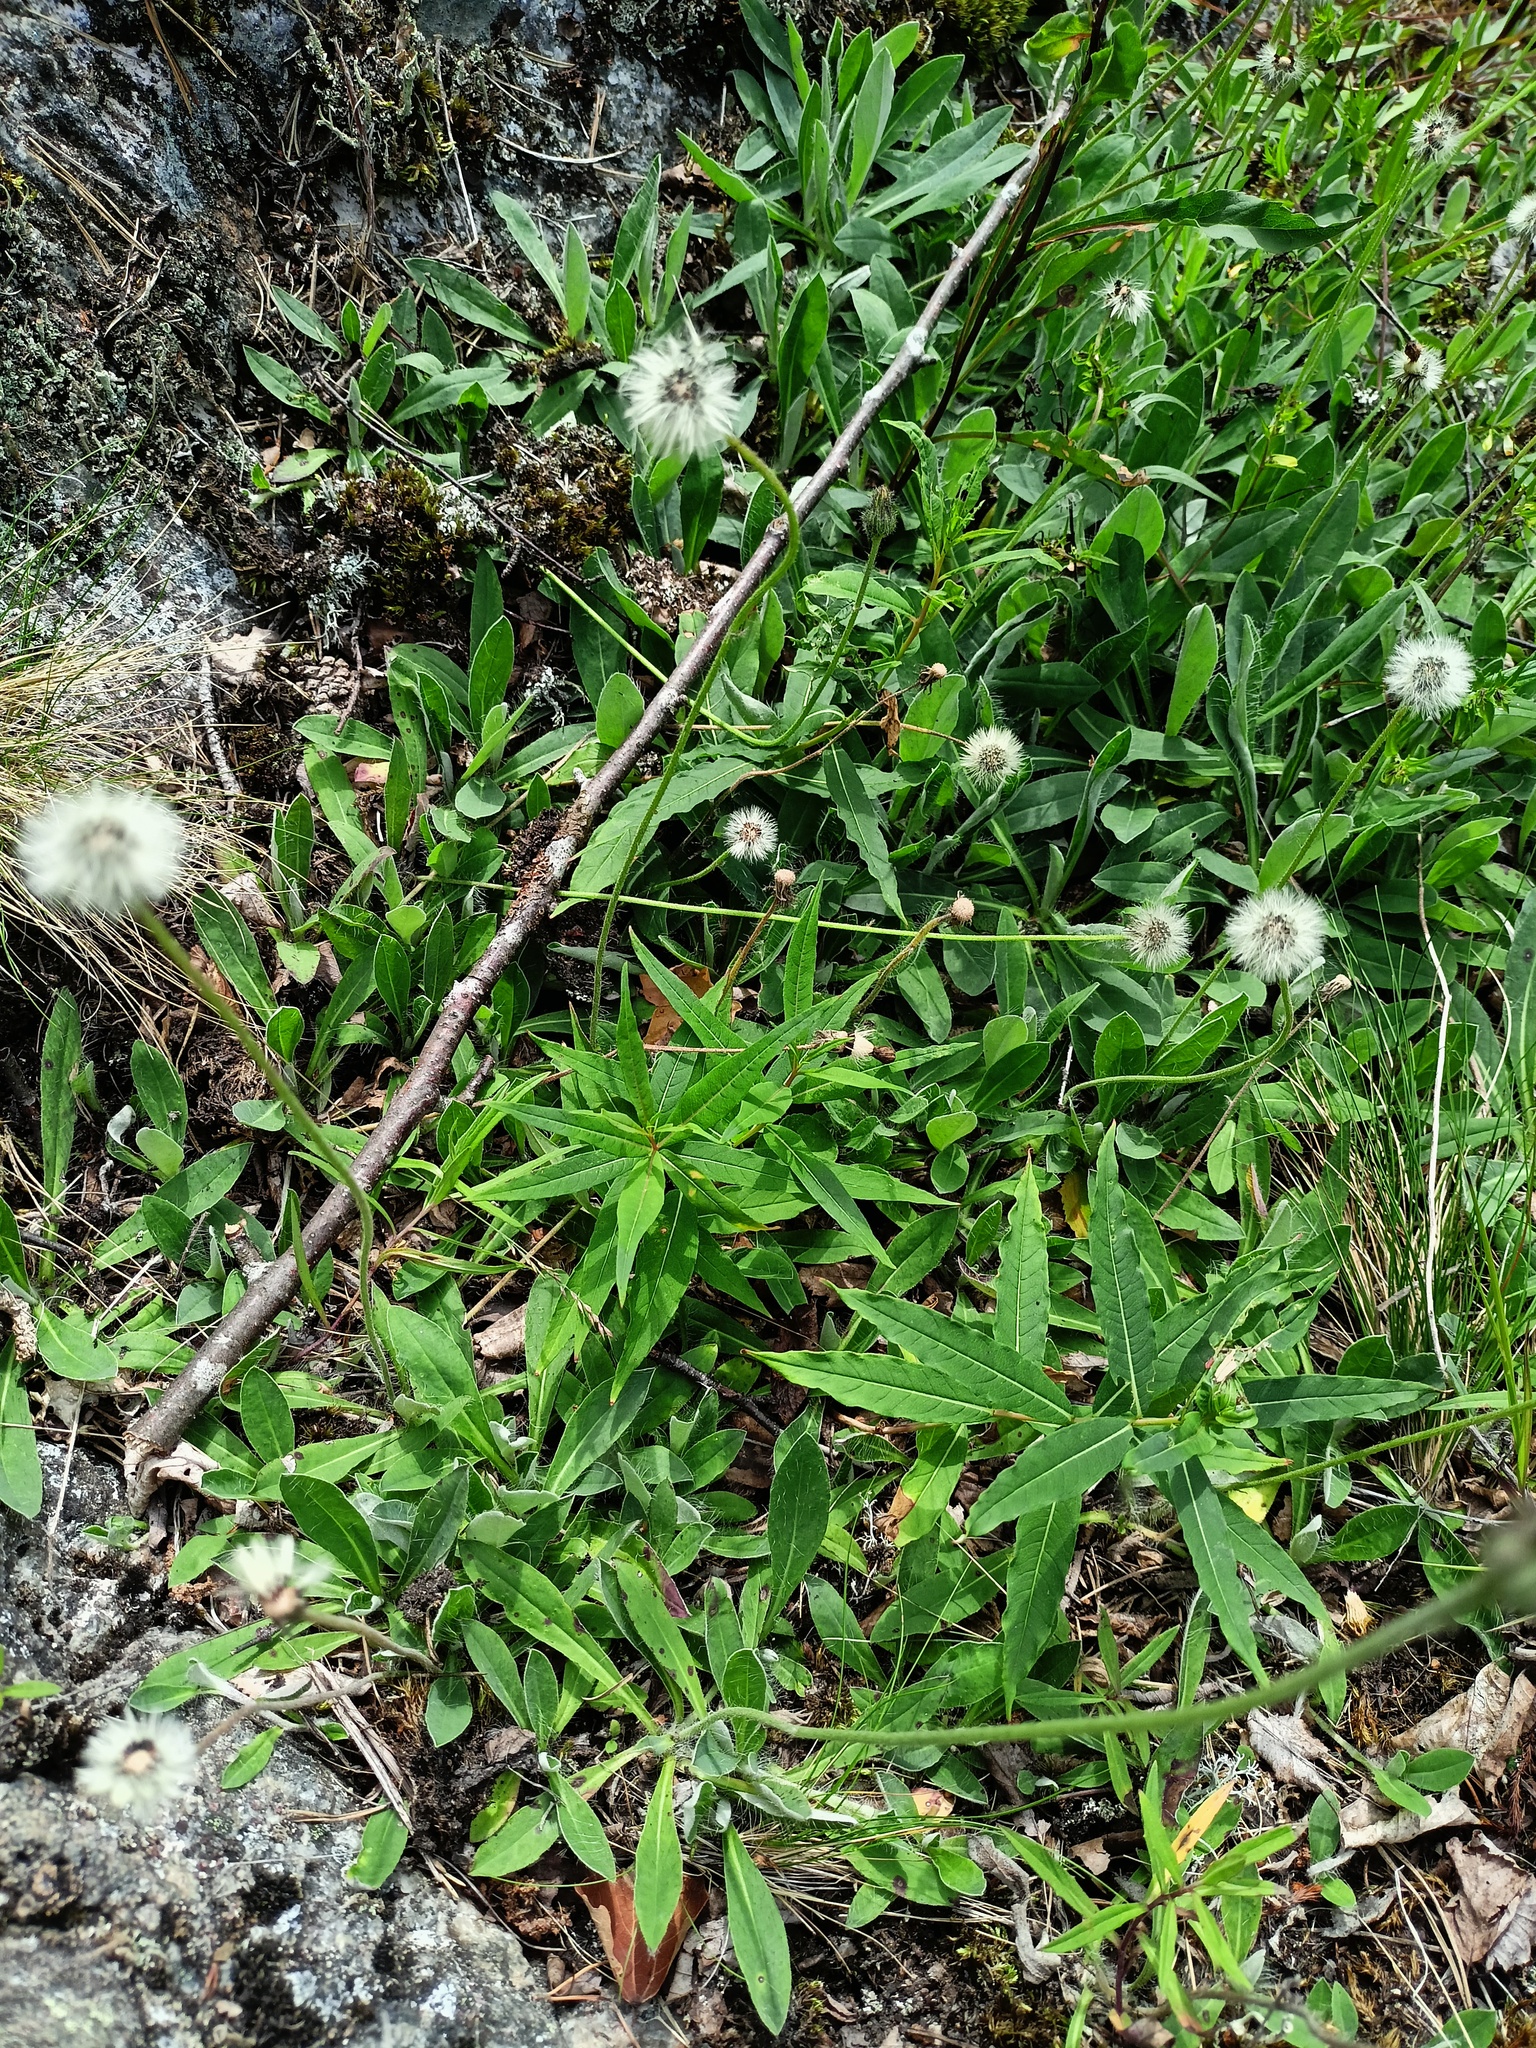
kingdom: Plantae
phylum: Tracheophyta
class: Magnoliopsida
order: Asterales
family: Asteraceae
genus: Pilosella
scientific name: Pilosella officinarum
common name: Mouse-ear hawkweed
